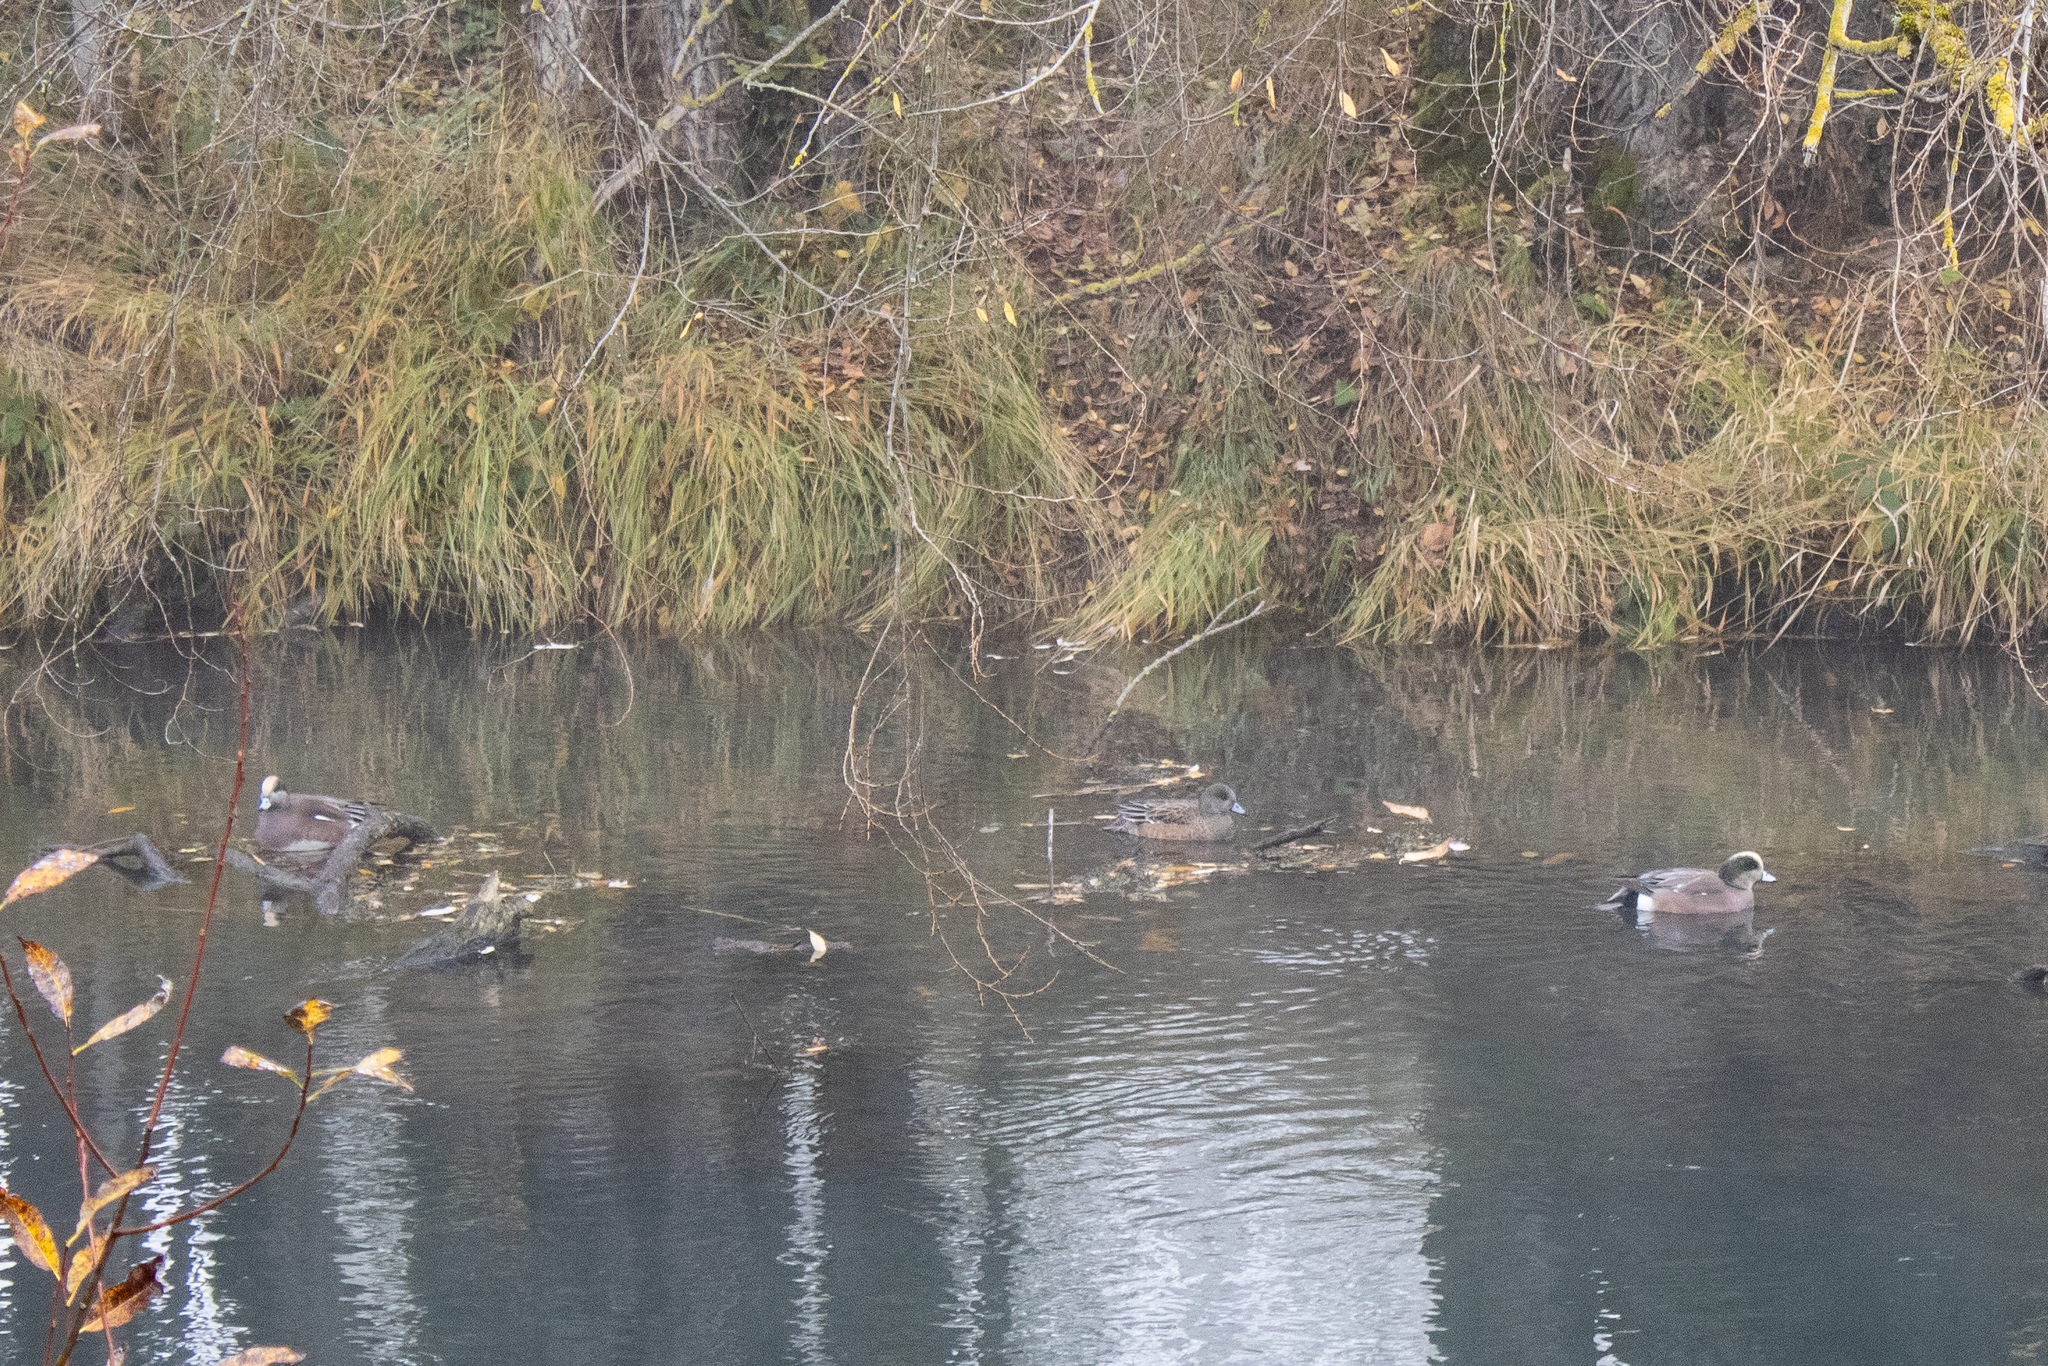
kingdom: Animalia
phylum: Chordata
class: Aves
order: Anseriformes
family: Anatidae
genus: Mareca
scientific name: Mareca americana
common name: American wigeon
